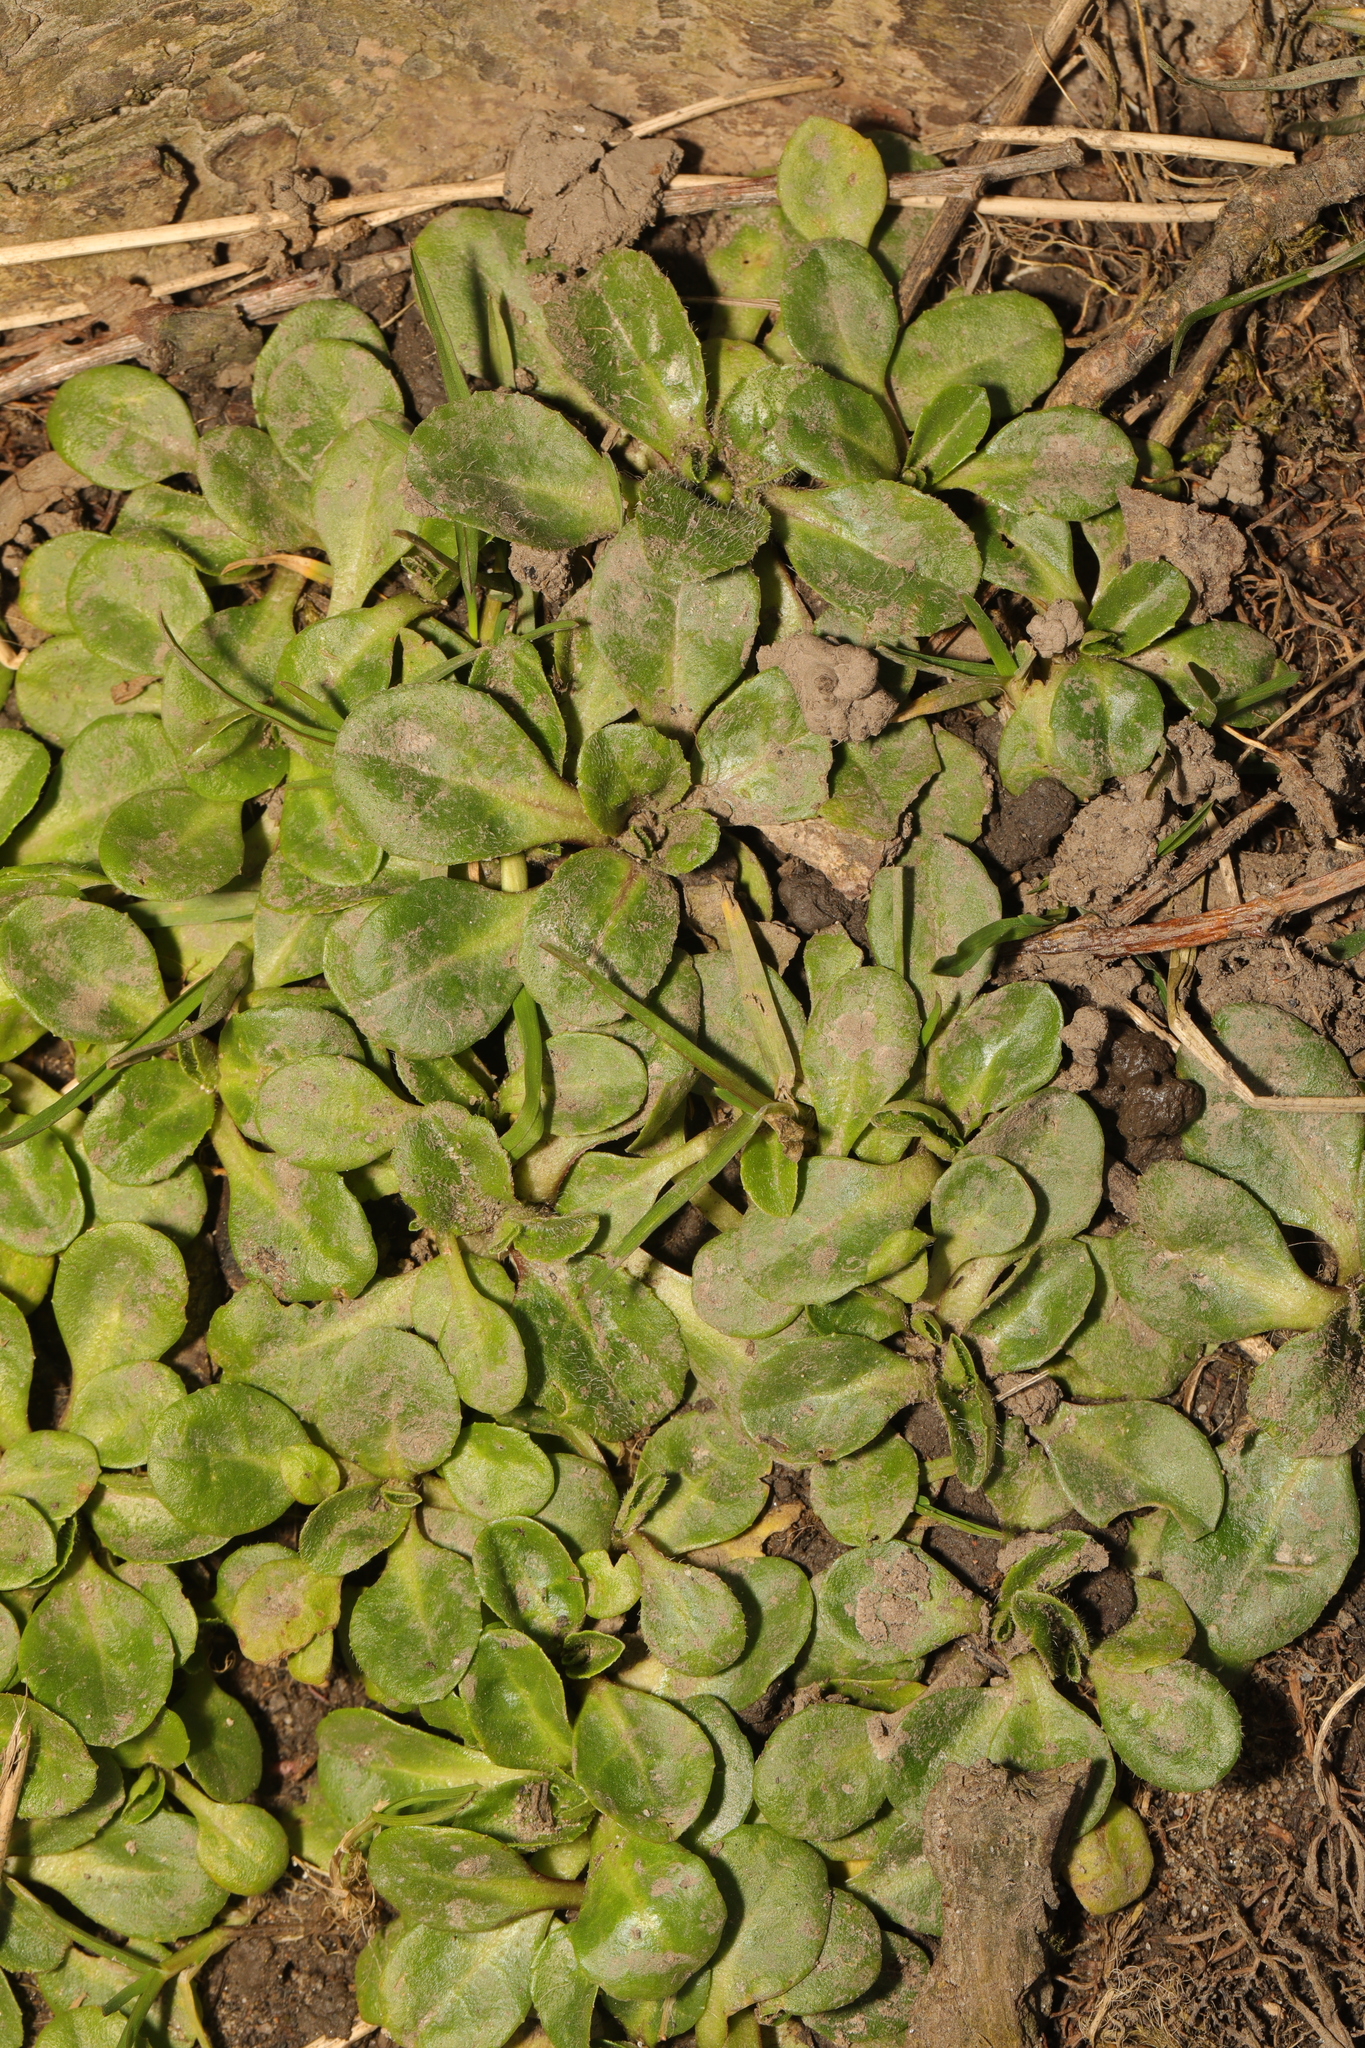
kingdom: Plantae
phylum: Tracheophyta
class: Magnoliopsida
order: Asterales
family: Asteraceae
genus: Bellis
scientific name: Bellis perennis
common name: Lawndaisy
